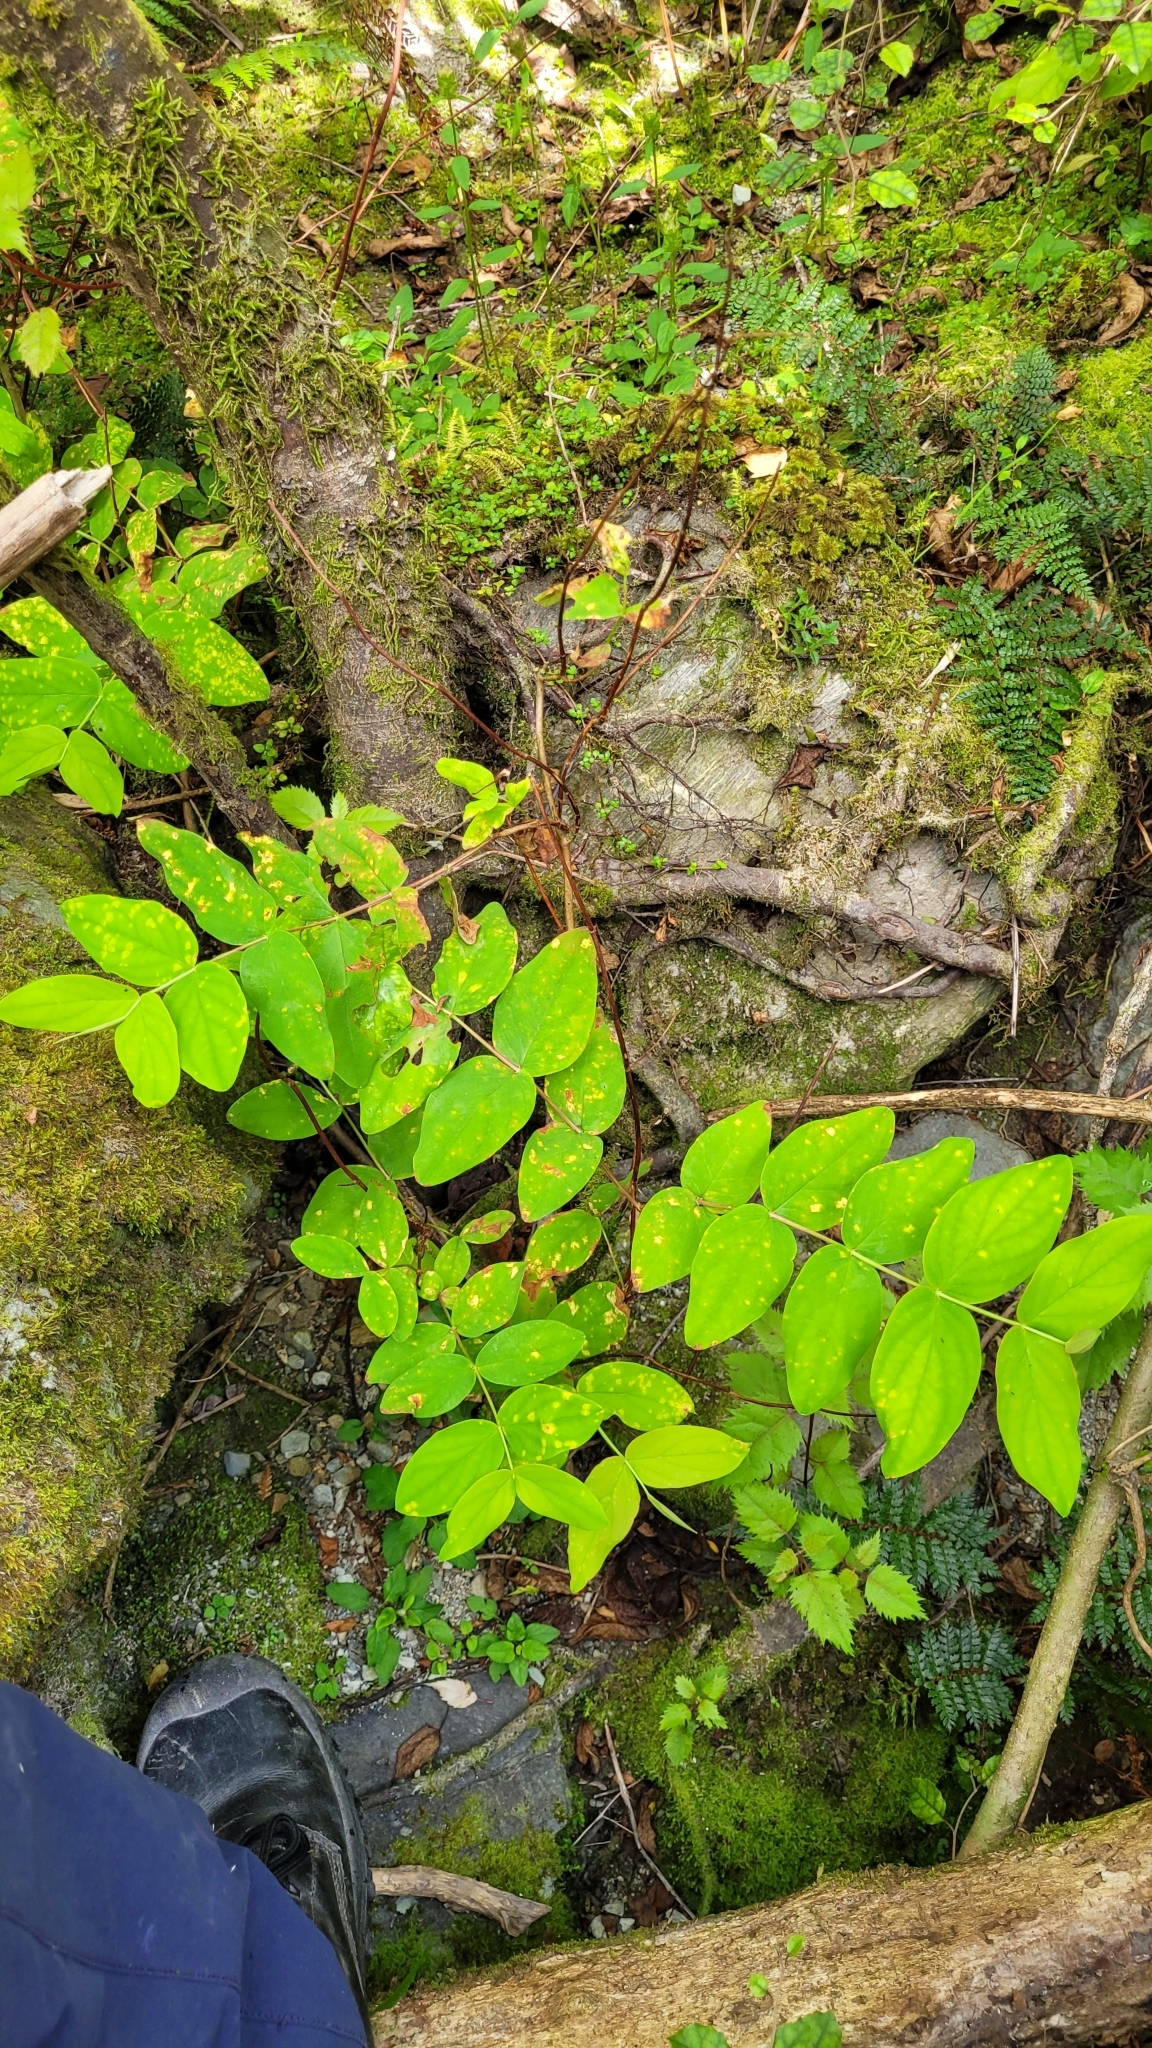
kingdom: Plantae
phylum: Tracheophyta
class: Magnoliopsida
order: Malpighiales
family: Hypericaceae
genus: Hypericum
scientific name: Hypericum androsaemum
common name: Sweet-amber
